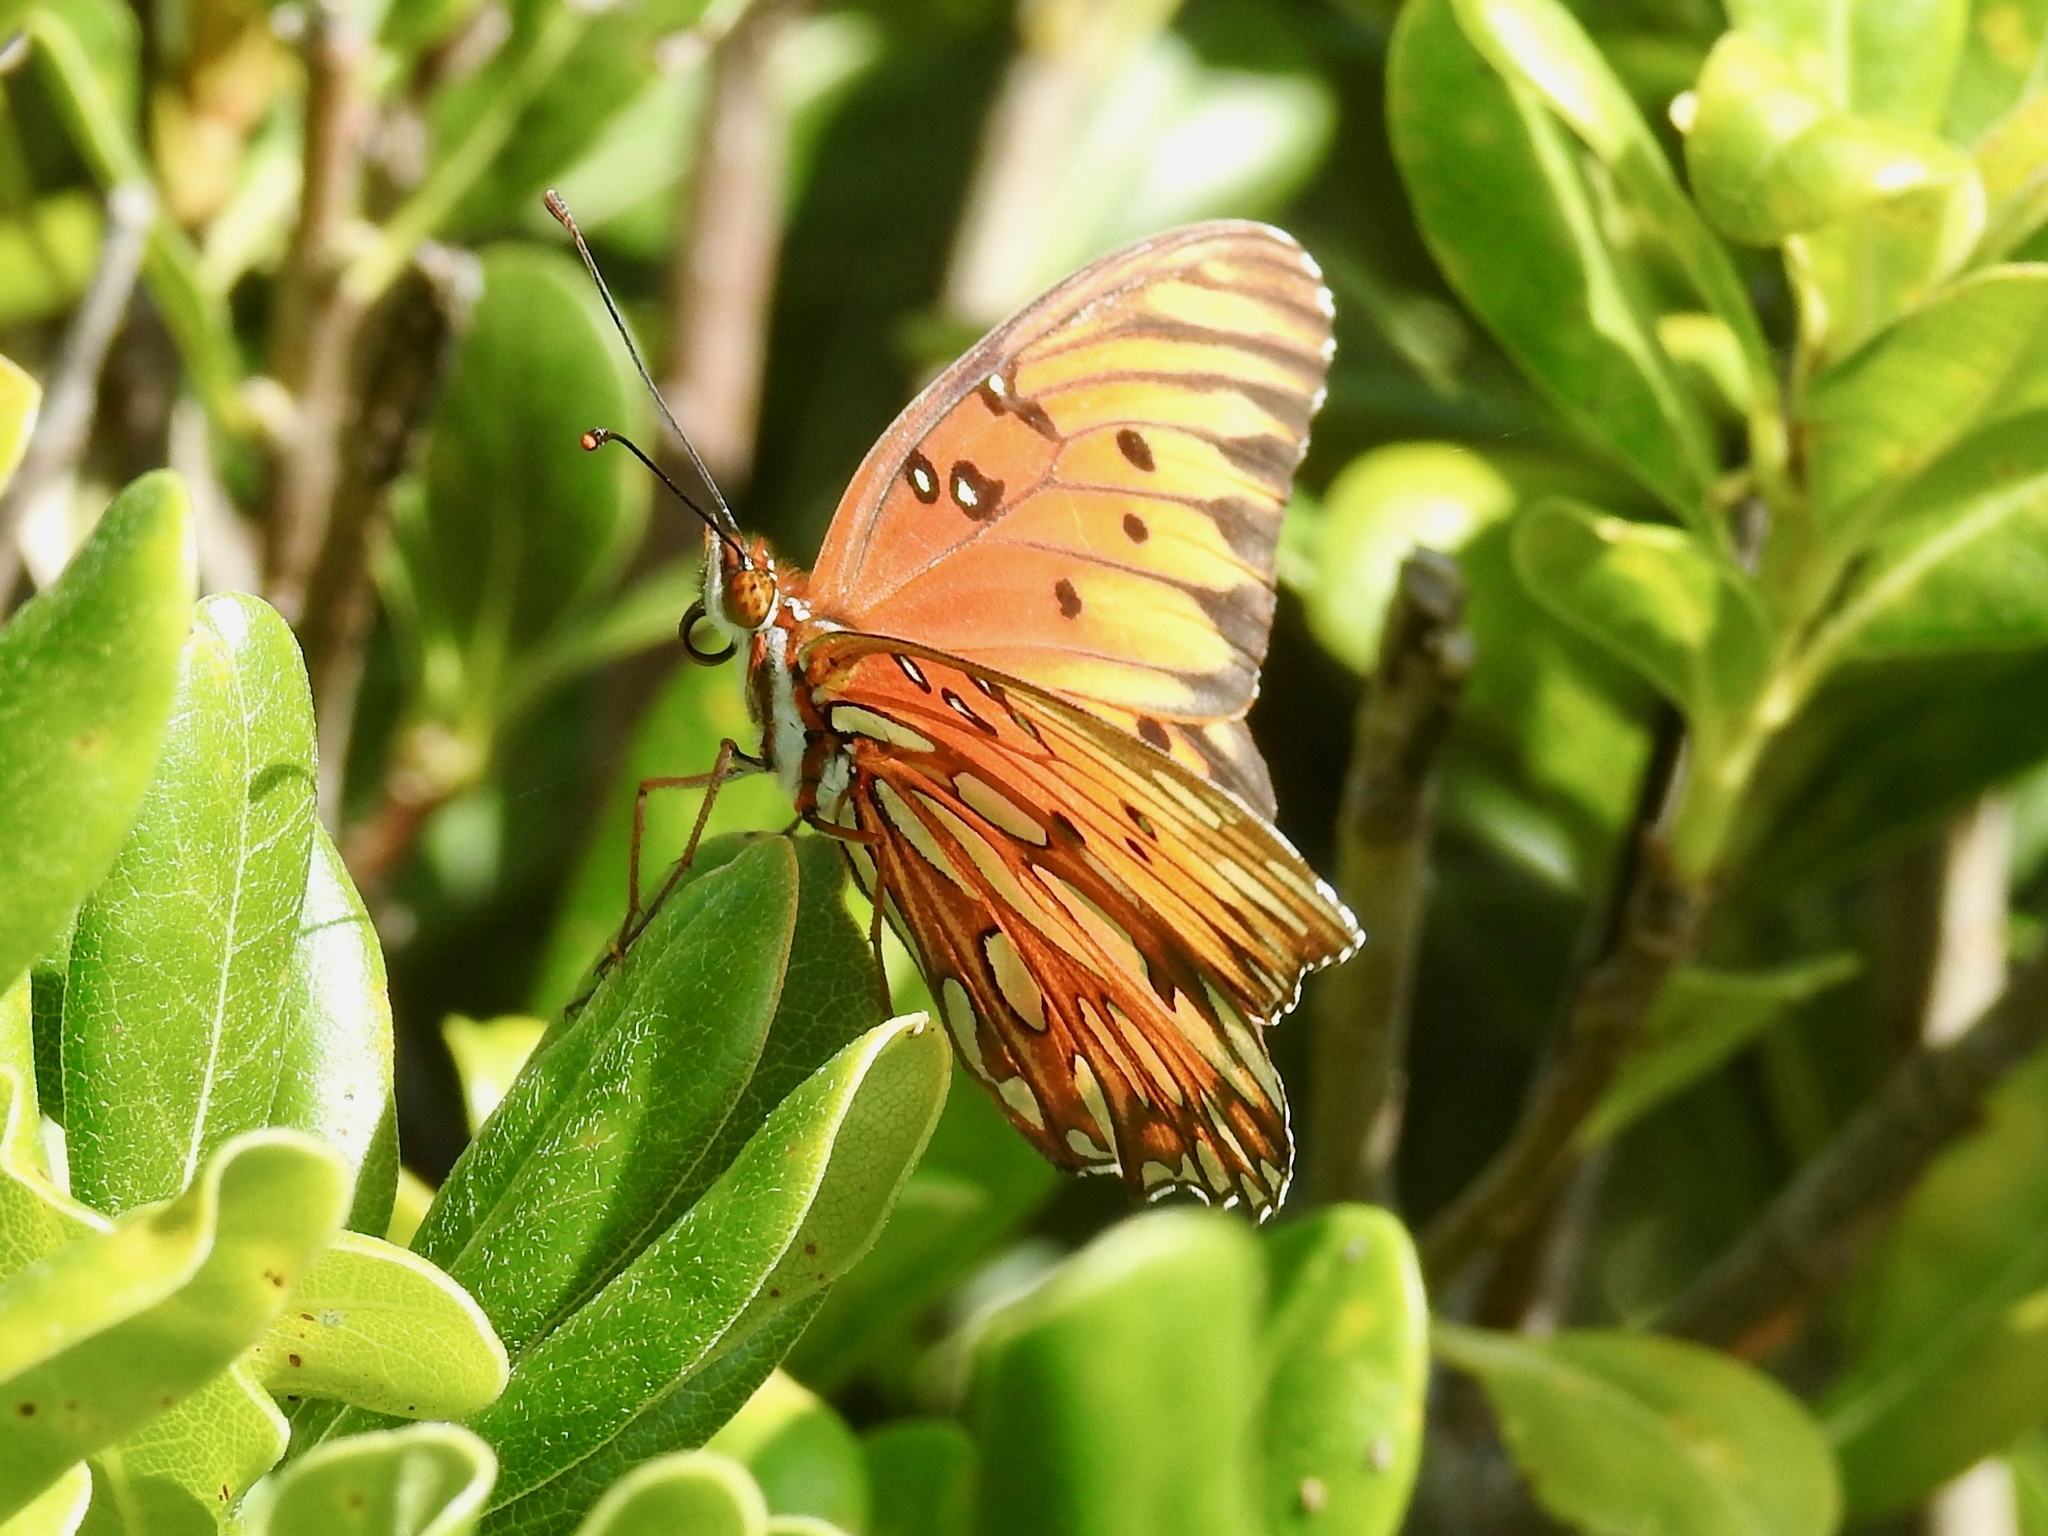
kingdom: Animalia
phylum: Arthropoda
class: Insecta
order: Lepidoptera
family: Nymphalidae
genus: Dione
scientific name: Dione vanillae
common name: Gulf fritillary
